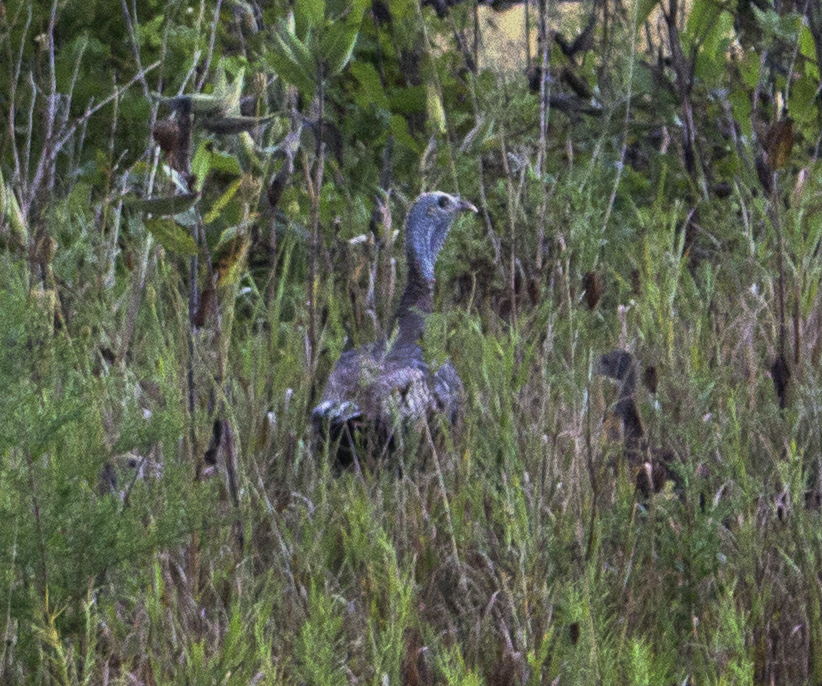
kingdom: Animalia
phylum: Chordata
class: Aves
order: Galliformes
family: Phasianidae
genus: Meleagris
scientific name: Meleagris gallopavo
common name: Wild turkey
